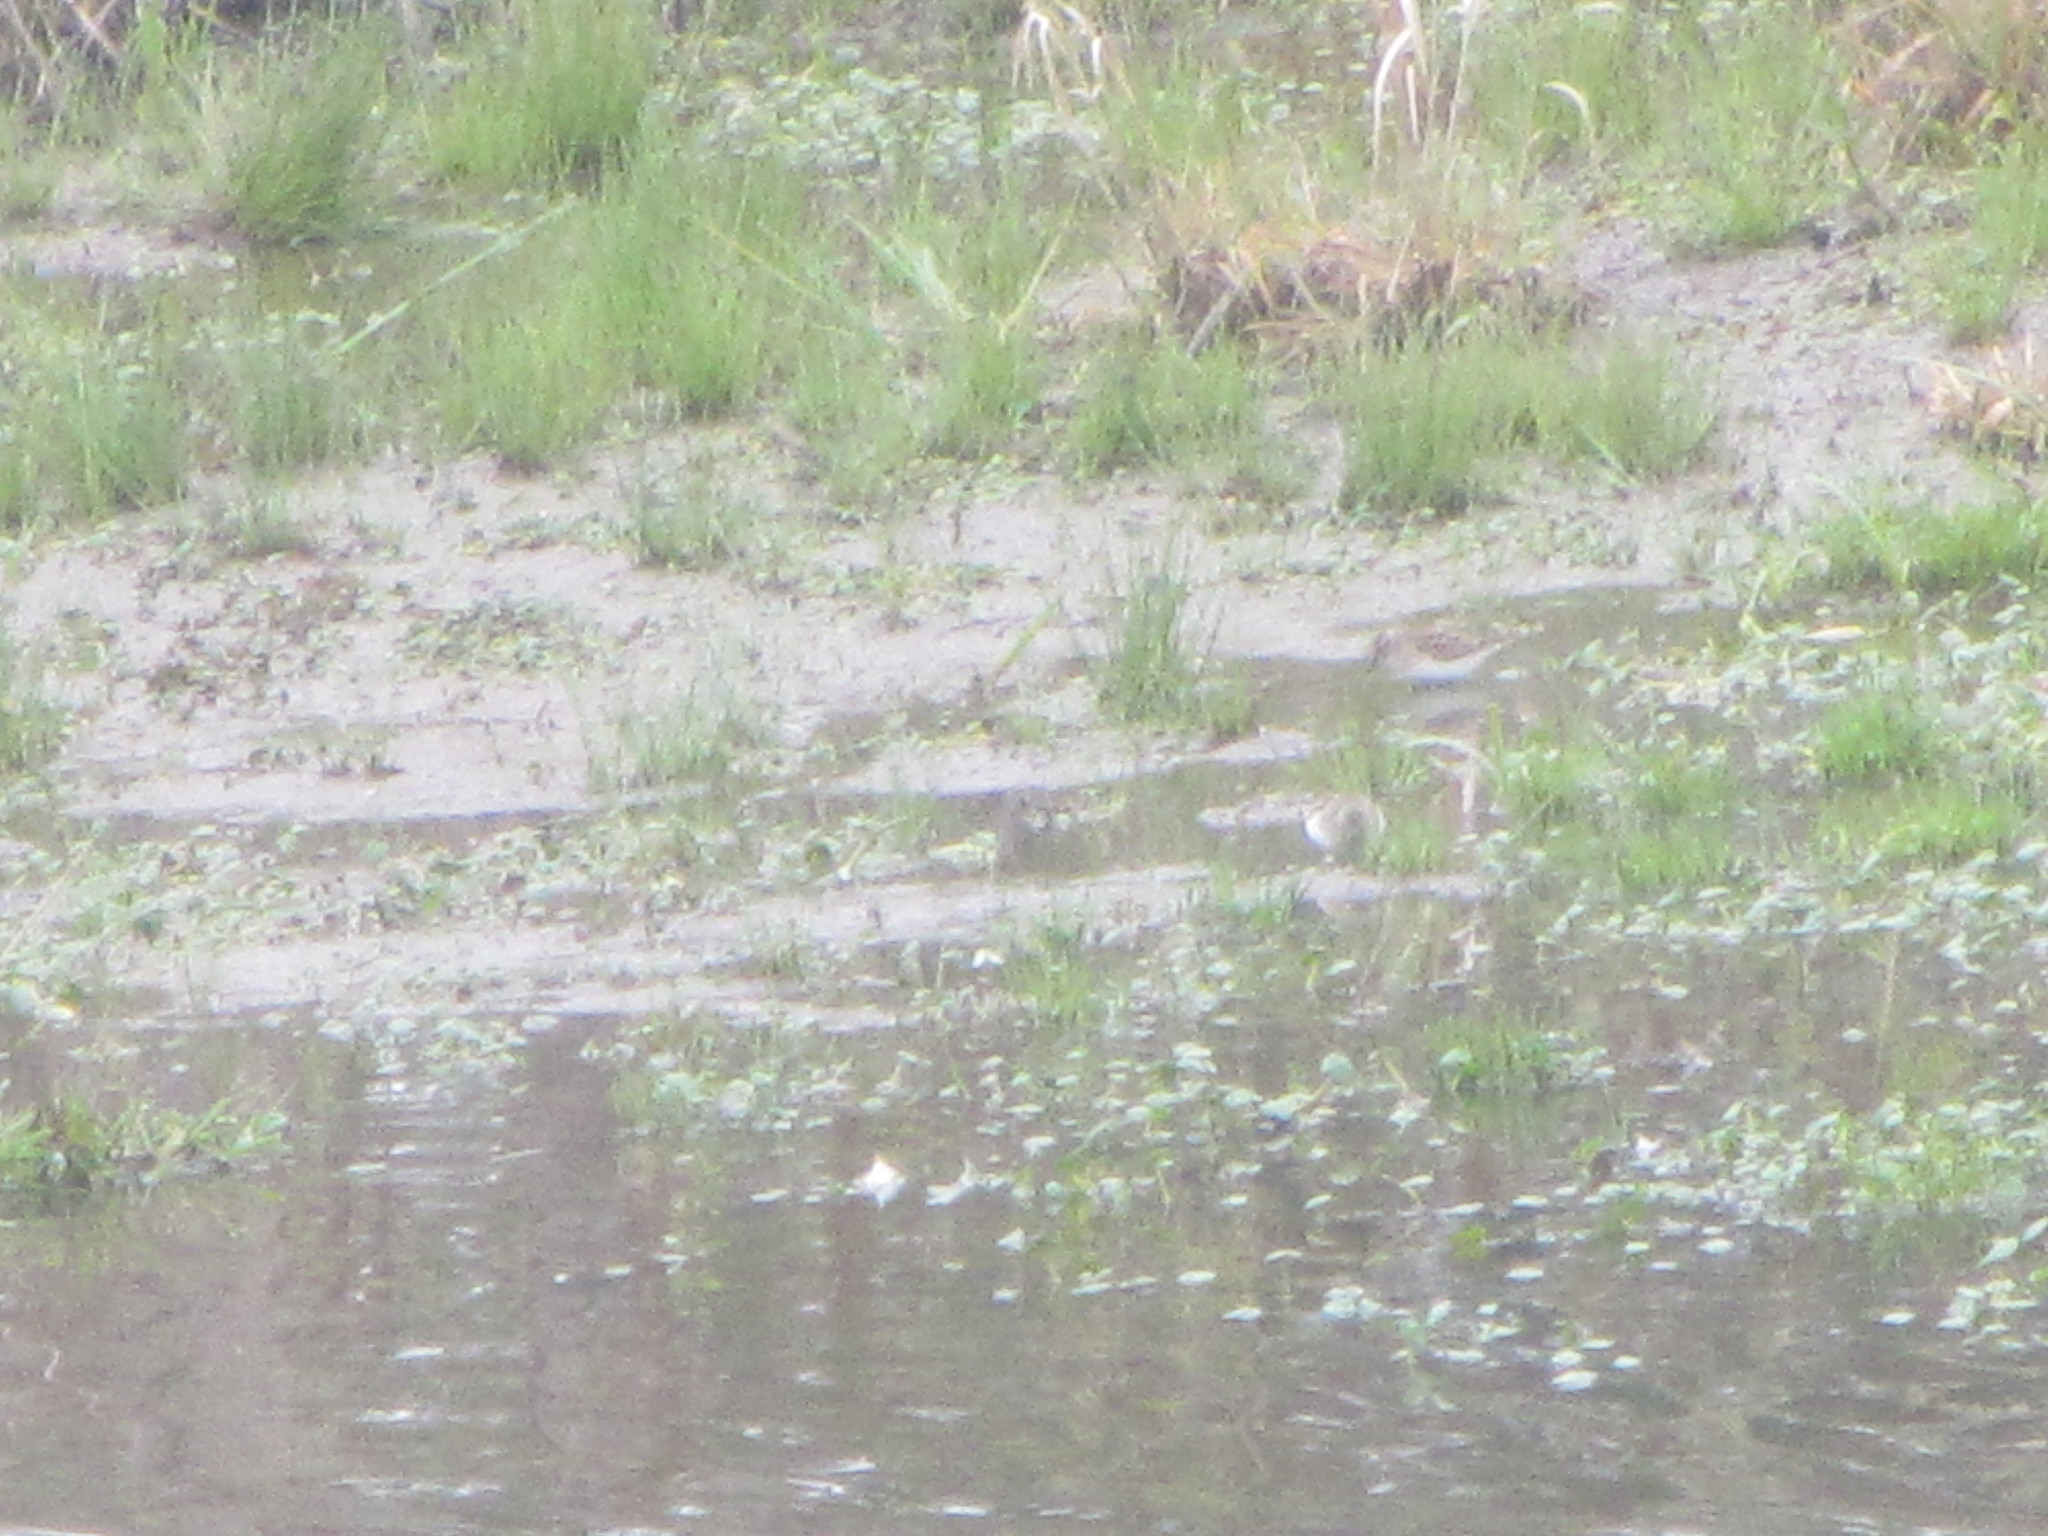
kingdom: Animalia
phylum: Chordata
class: Aves
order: Charadriiformes
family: Scolopacidae
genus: Calidris
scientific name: Calidris
